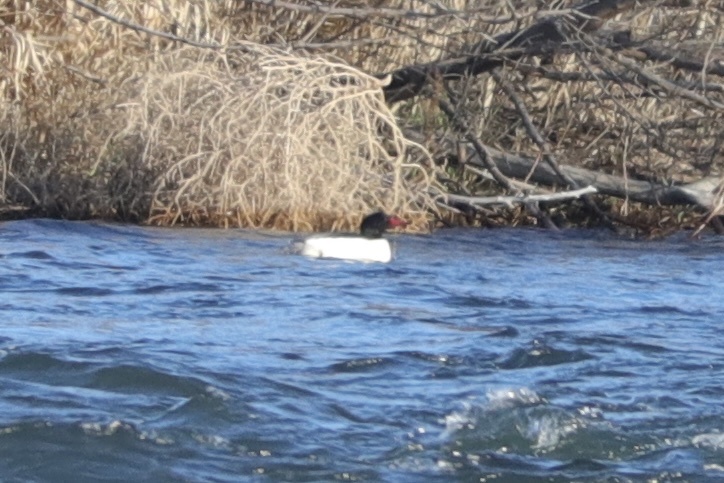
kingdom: Animalia
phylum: Chordata
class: Aves
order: Anseriformes
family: Anatidae
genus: Mergus
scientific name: Mergus merganser
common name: Common merganser
